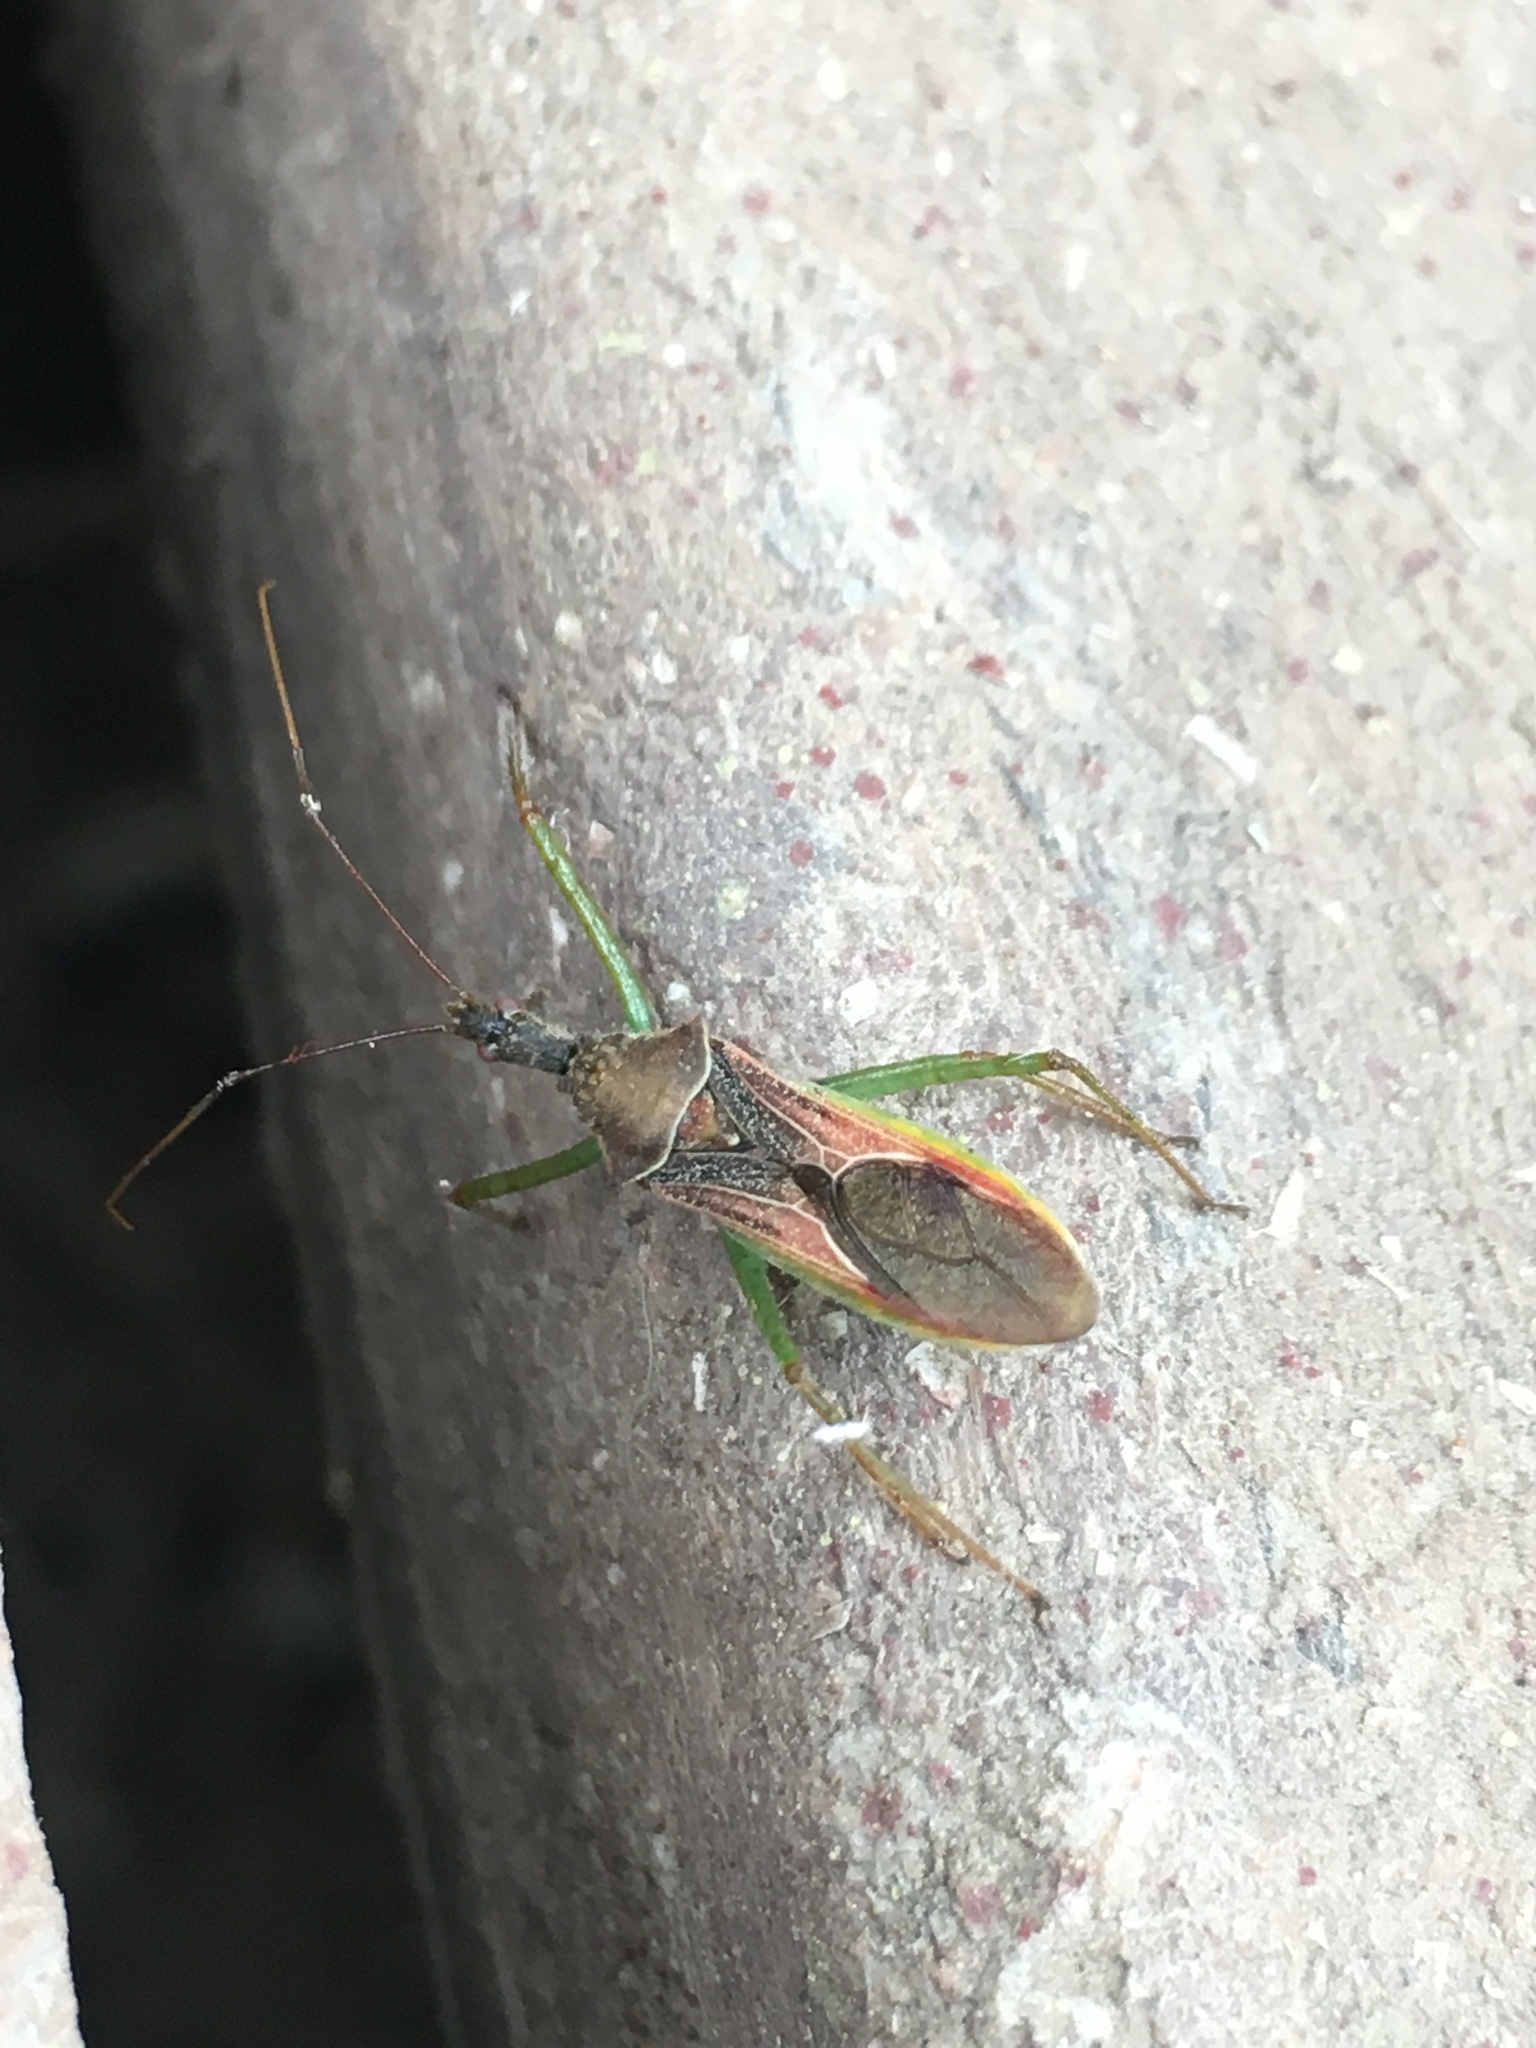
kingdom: Animalia
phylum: Arthropoda
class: Insecta
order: Hemiptera
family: Reduviidae
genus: Zelus
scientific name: Zelus renardii
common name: Assassin bug
